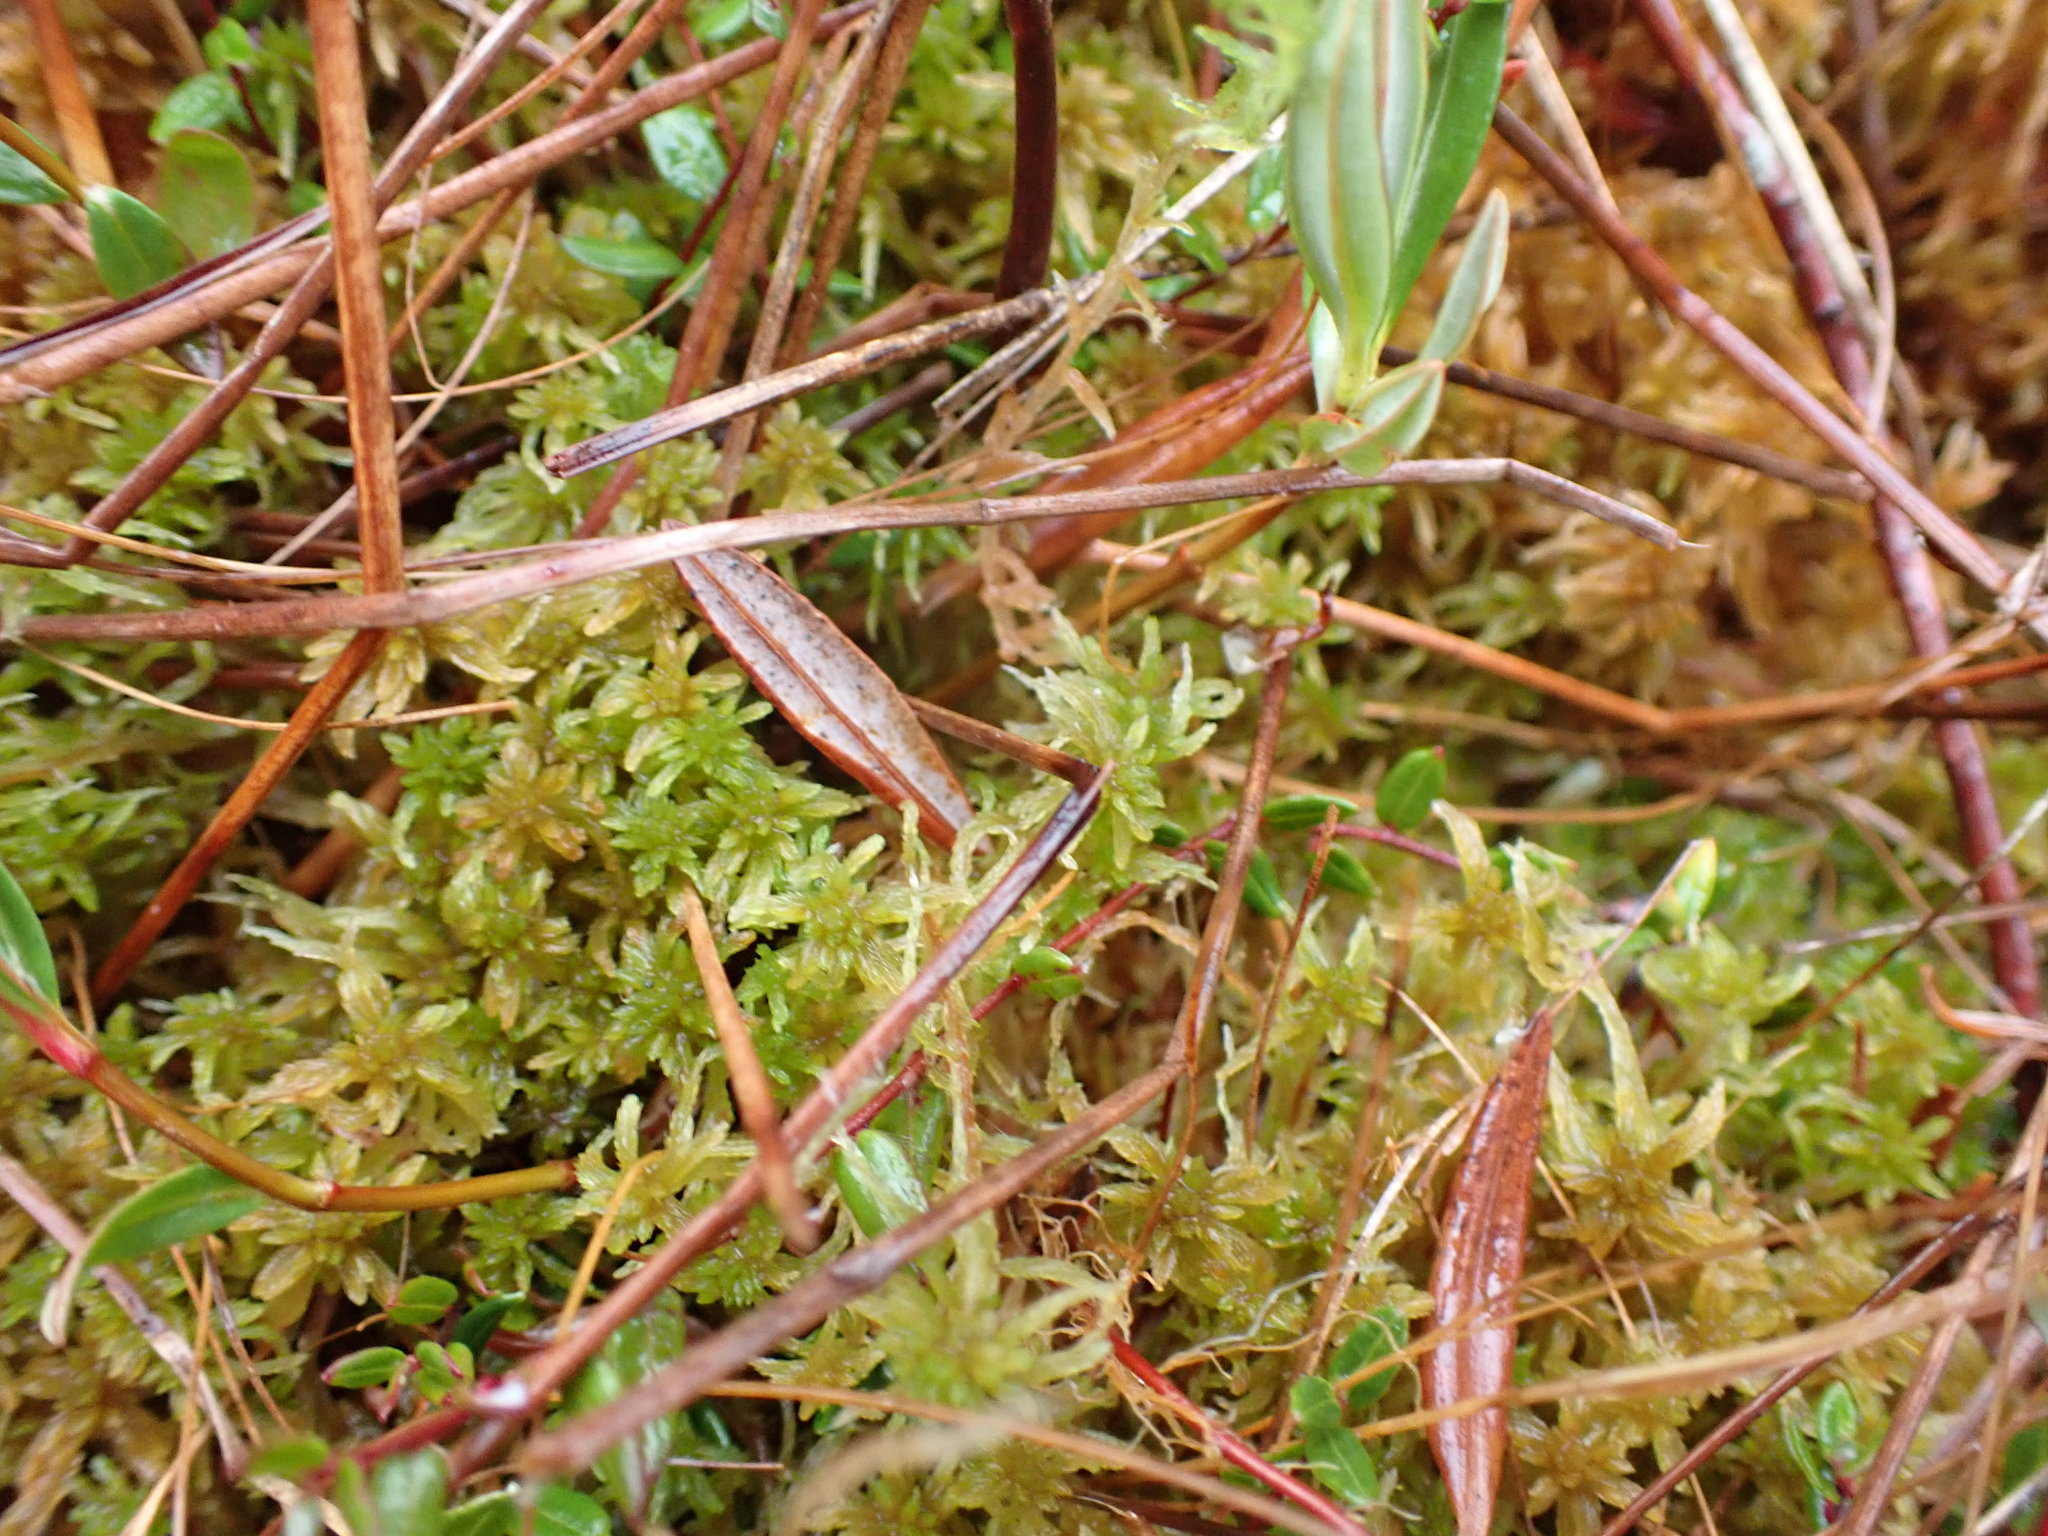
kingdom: Plantae
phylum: Bryophyta
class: Sphagnopsida
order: Sphagnales
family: Sphagnaceae
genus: Sphagnum
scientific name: Sphagnum tenellum
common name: Soft bog-moss
